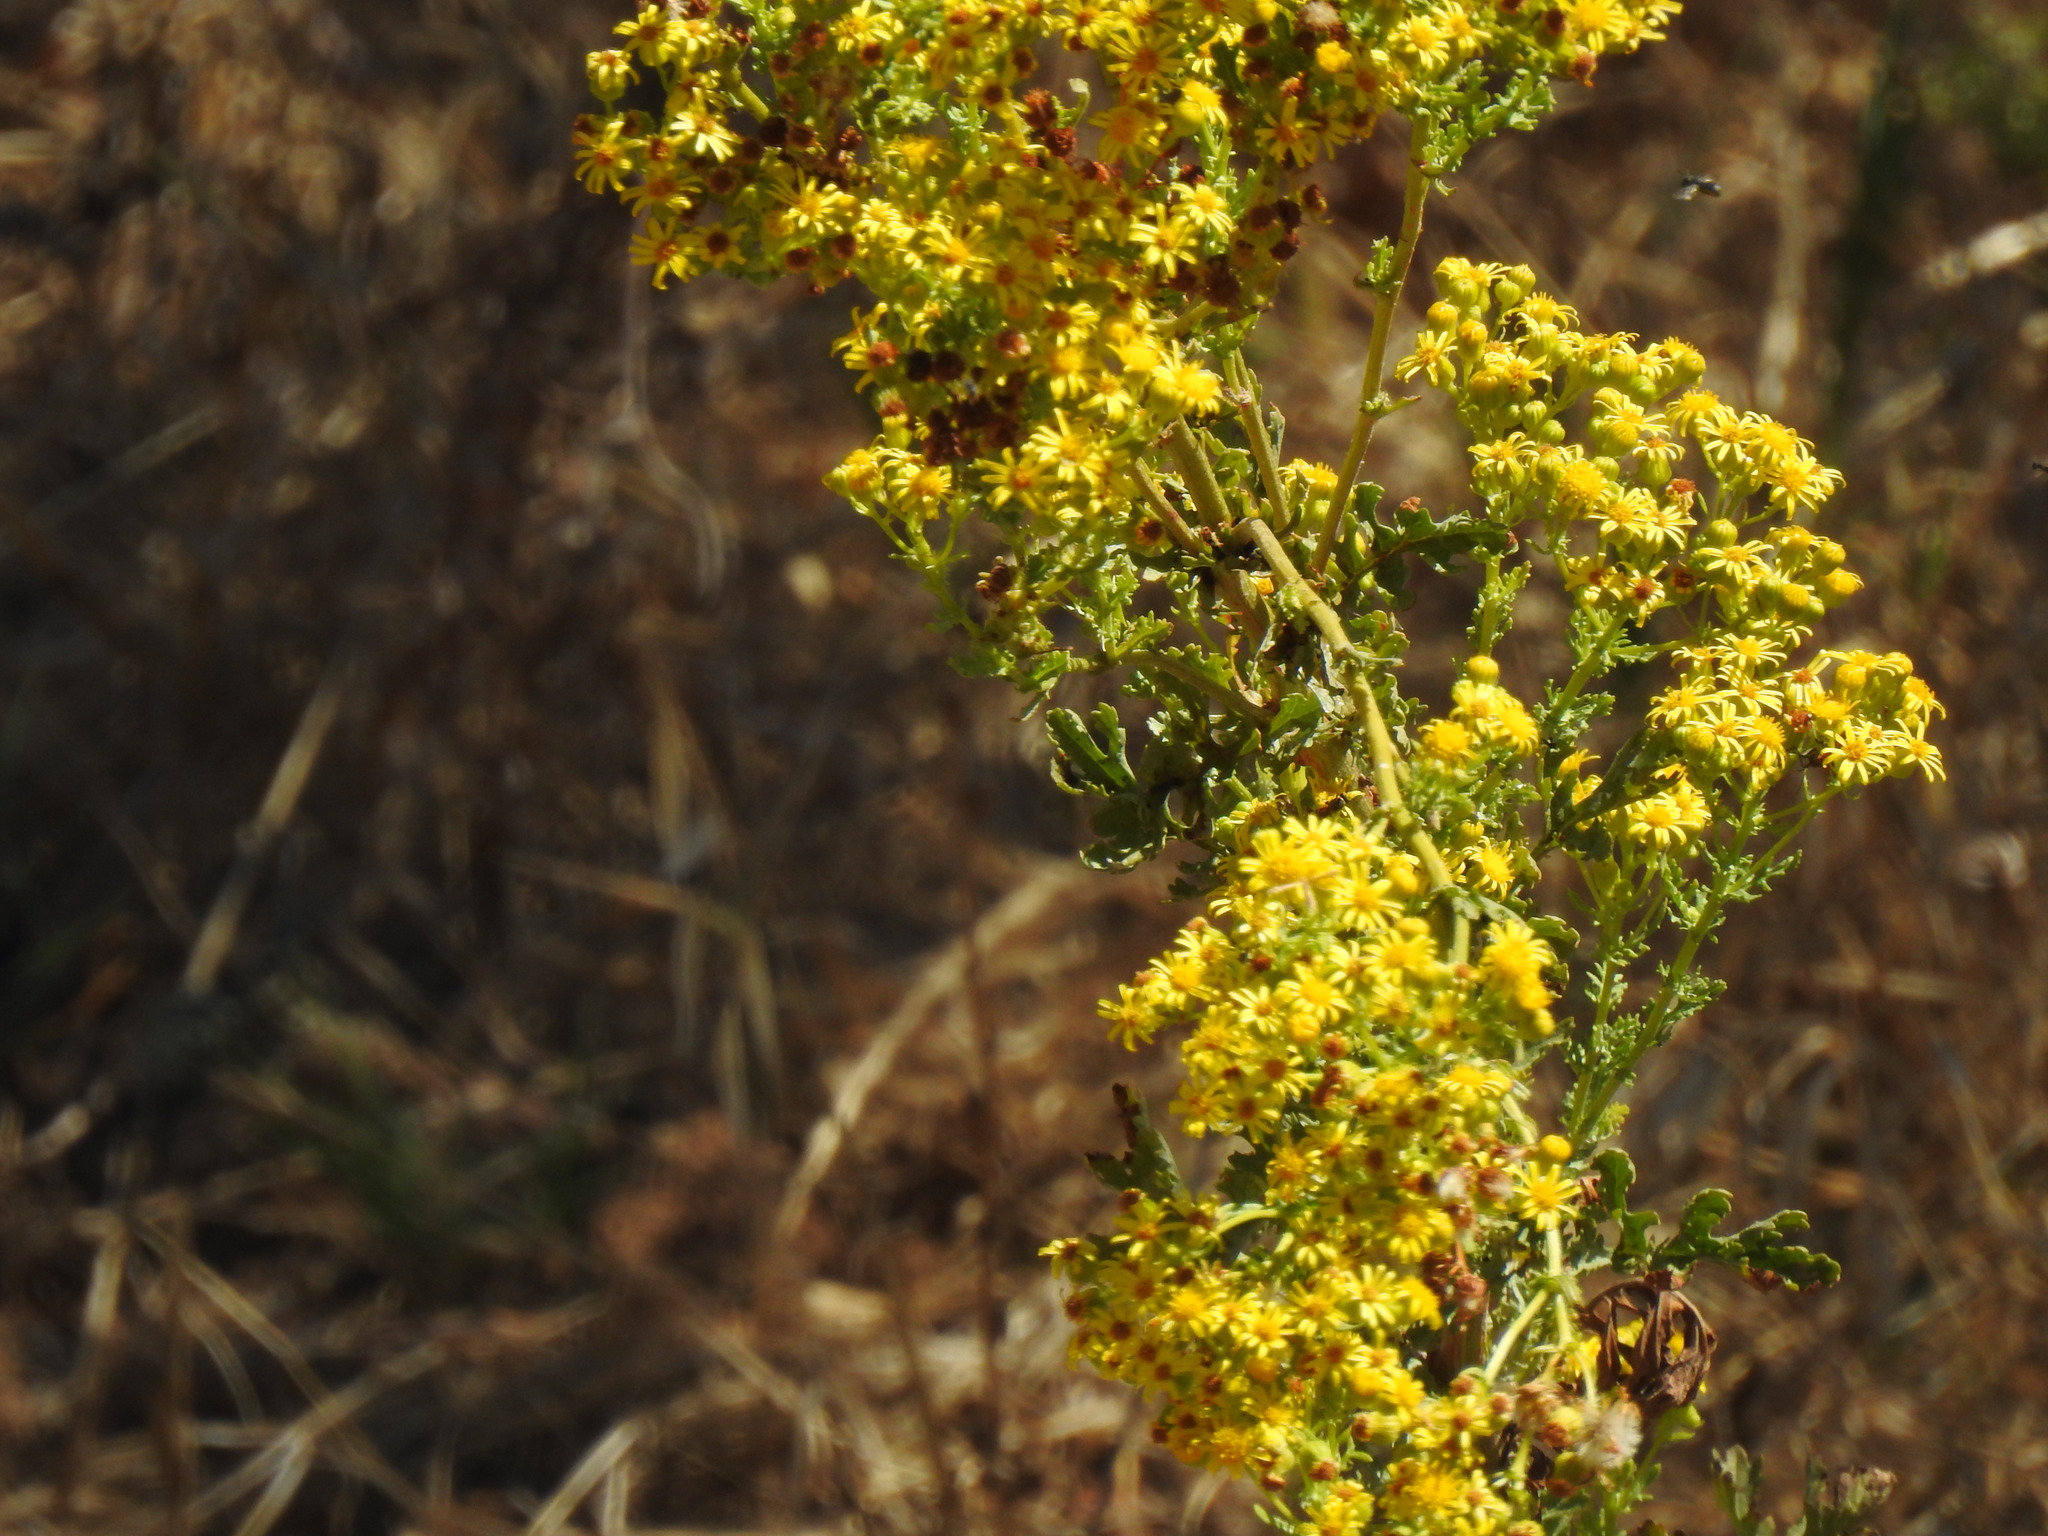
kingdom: Plantae
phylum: Tracheophyta
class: Magnoliopsida
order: Asterales
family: Asteraceae
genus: Jacobaea
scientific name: Jacobaea vulgaris
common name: Stinking willie
